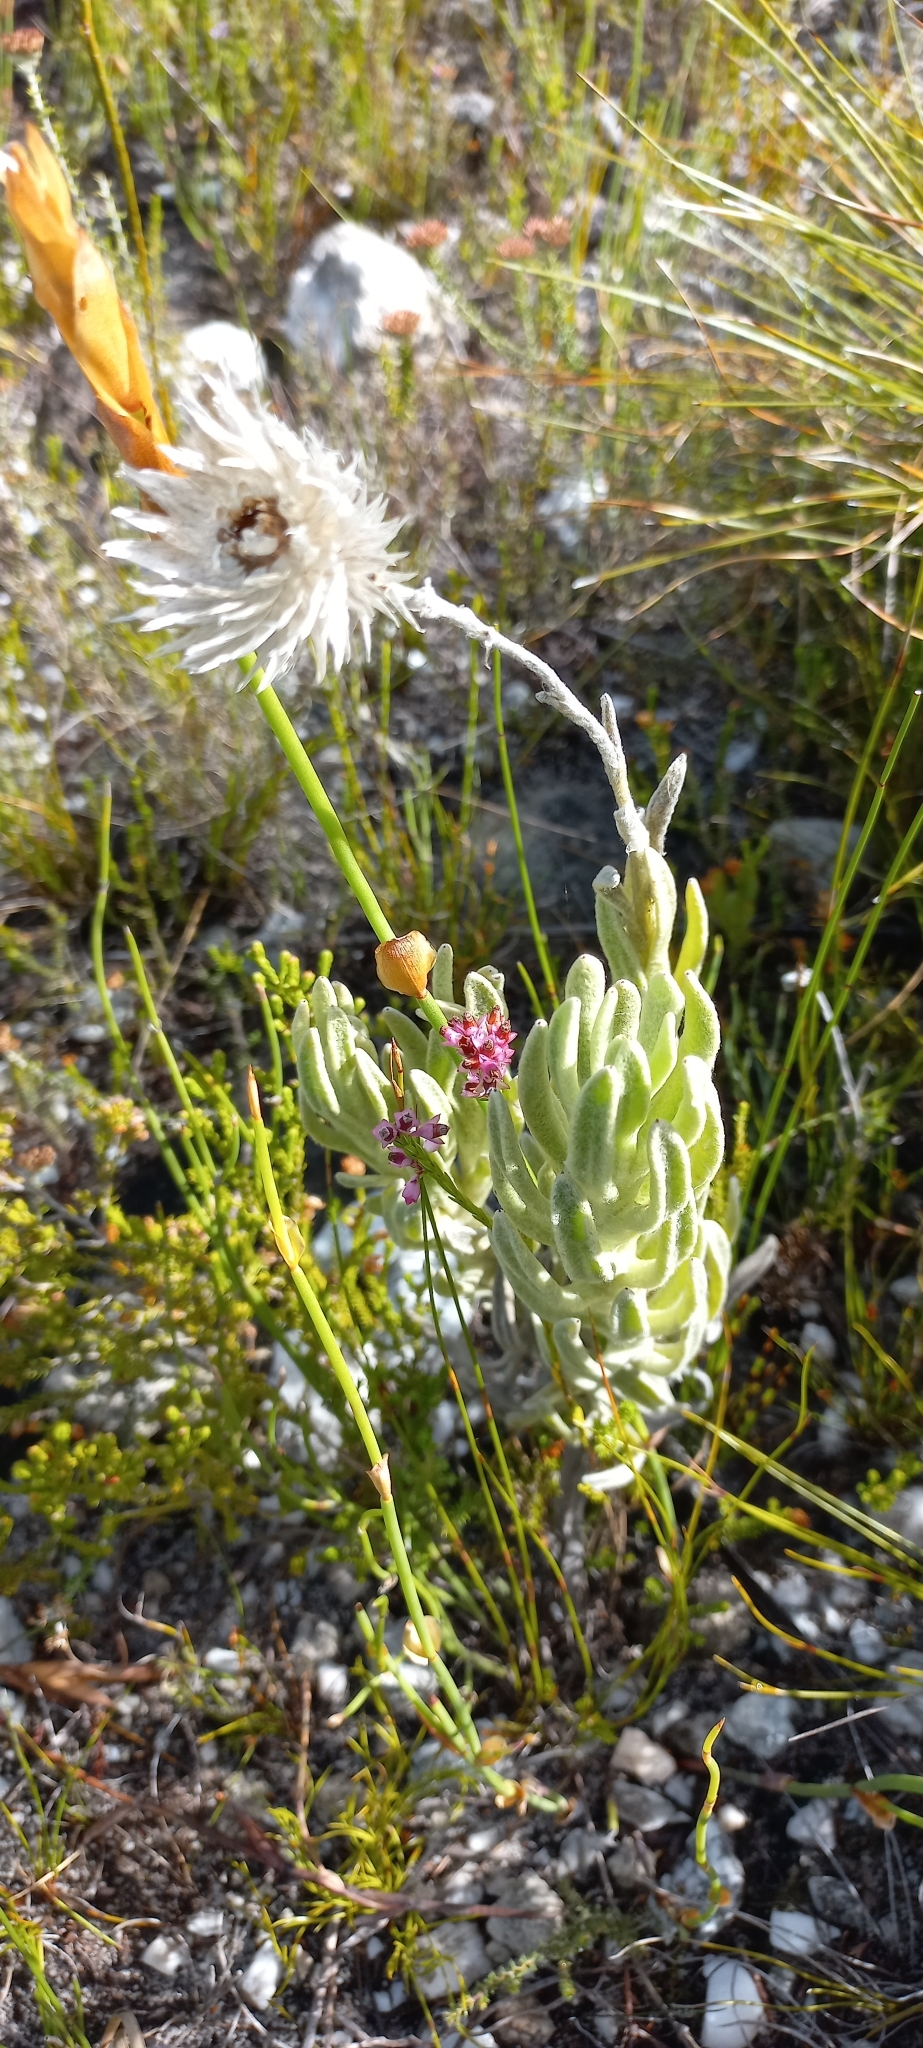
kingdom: Plantae
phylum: Tracheophyta
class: Magnoliopsida
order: Asterales
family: Asteraceae
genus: Syncarpha
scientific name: Syncarpha vestita
